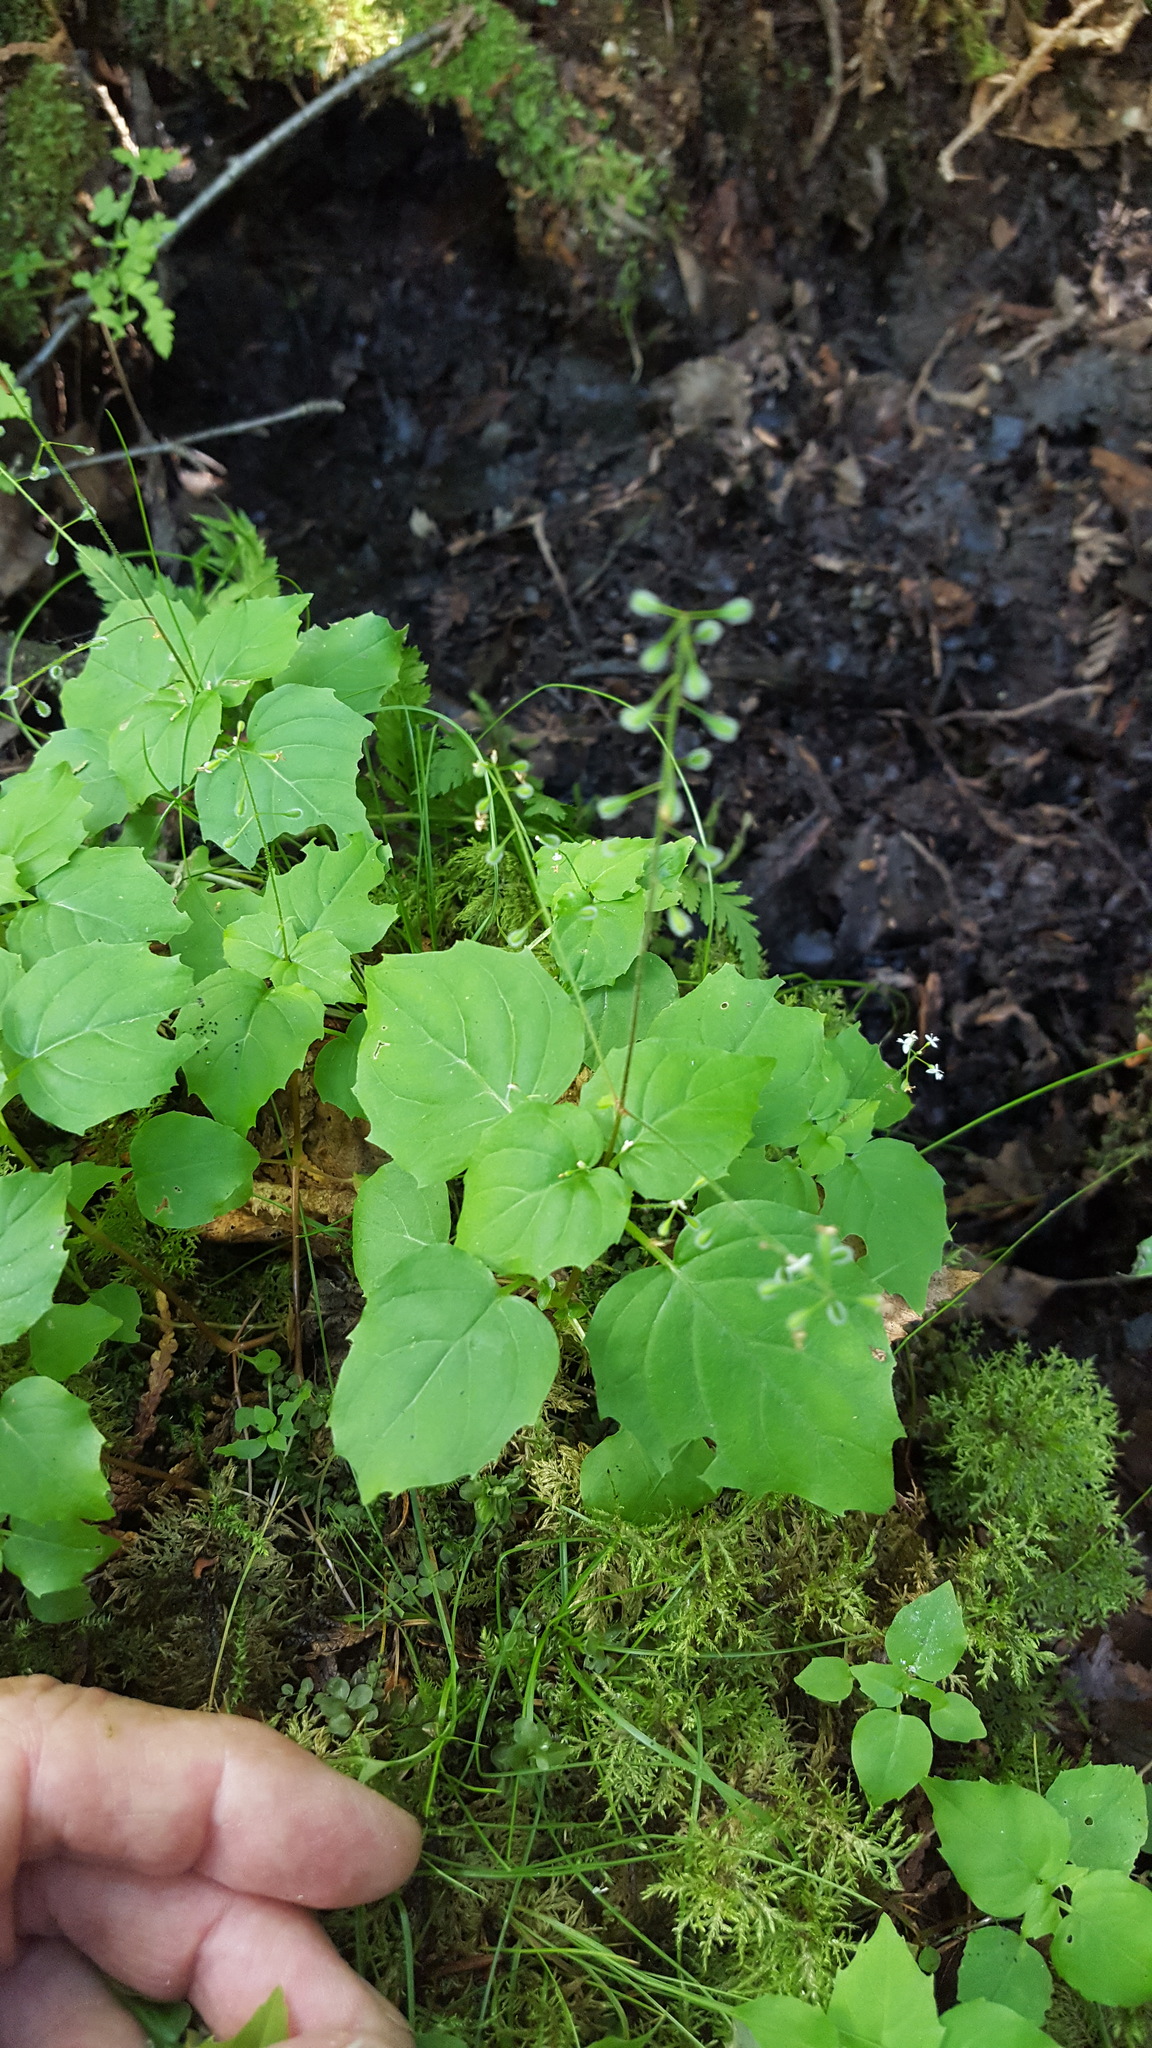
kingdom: Plantae
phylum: Tracheophyta
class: Magnoliopsida
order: Myrtales
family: Onagraceae
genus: Circaea
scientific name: Circaea alpina
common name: Alpine enchanter's-nightshade
